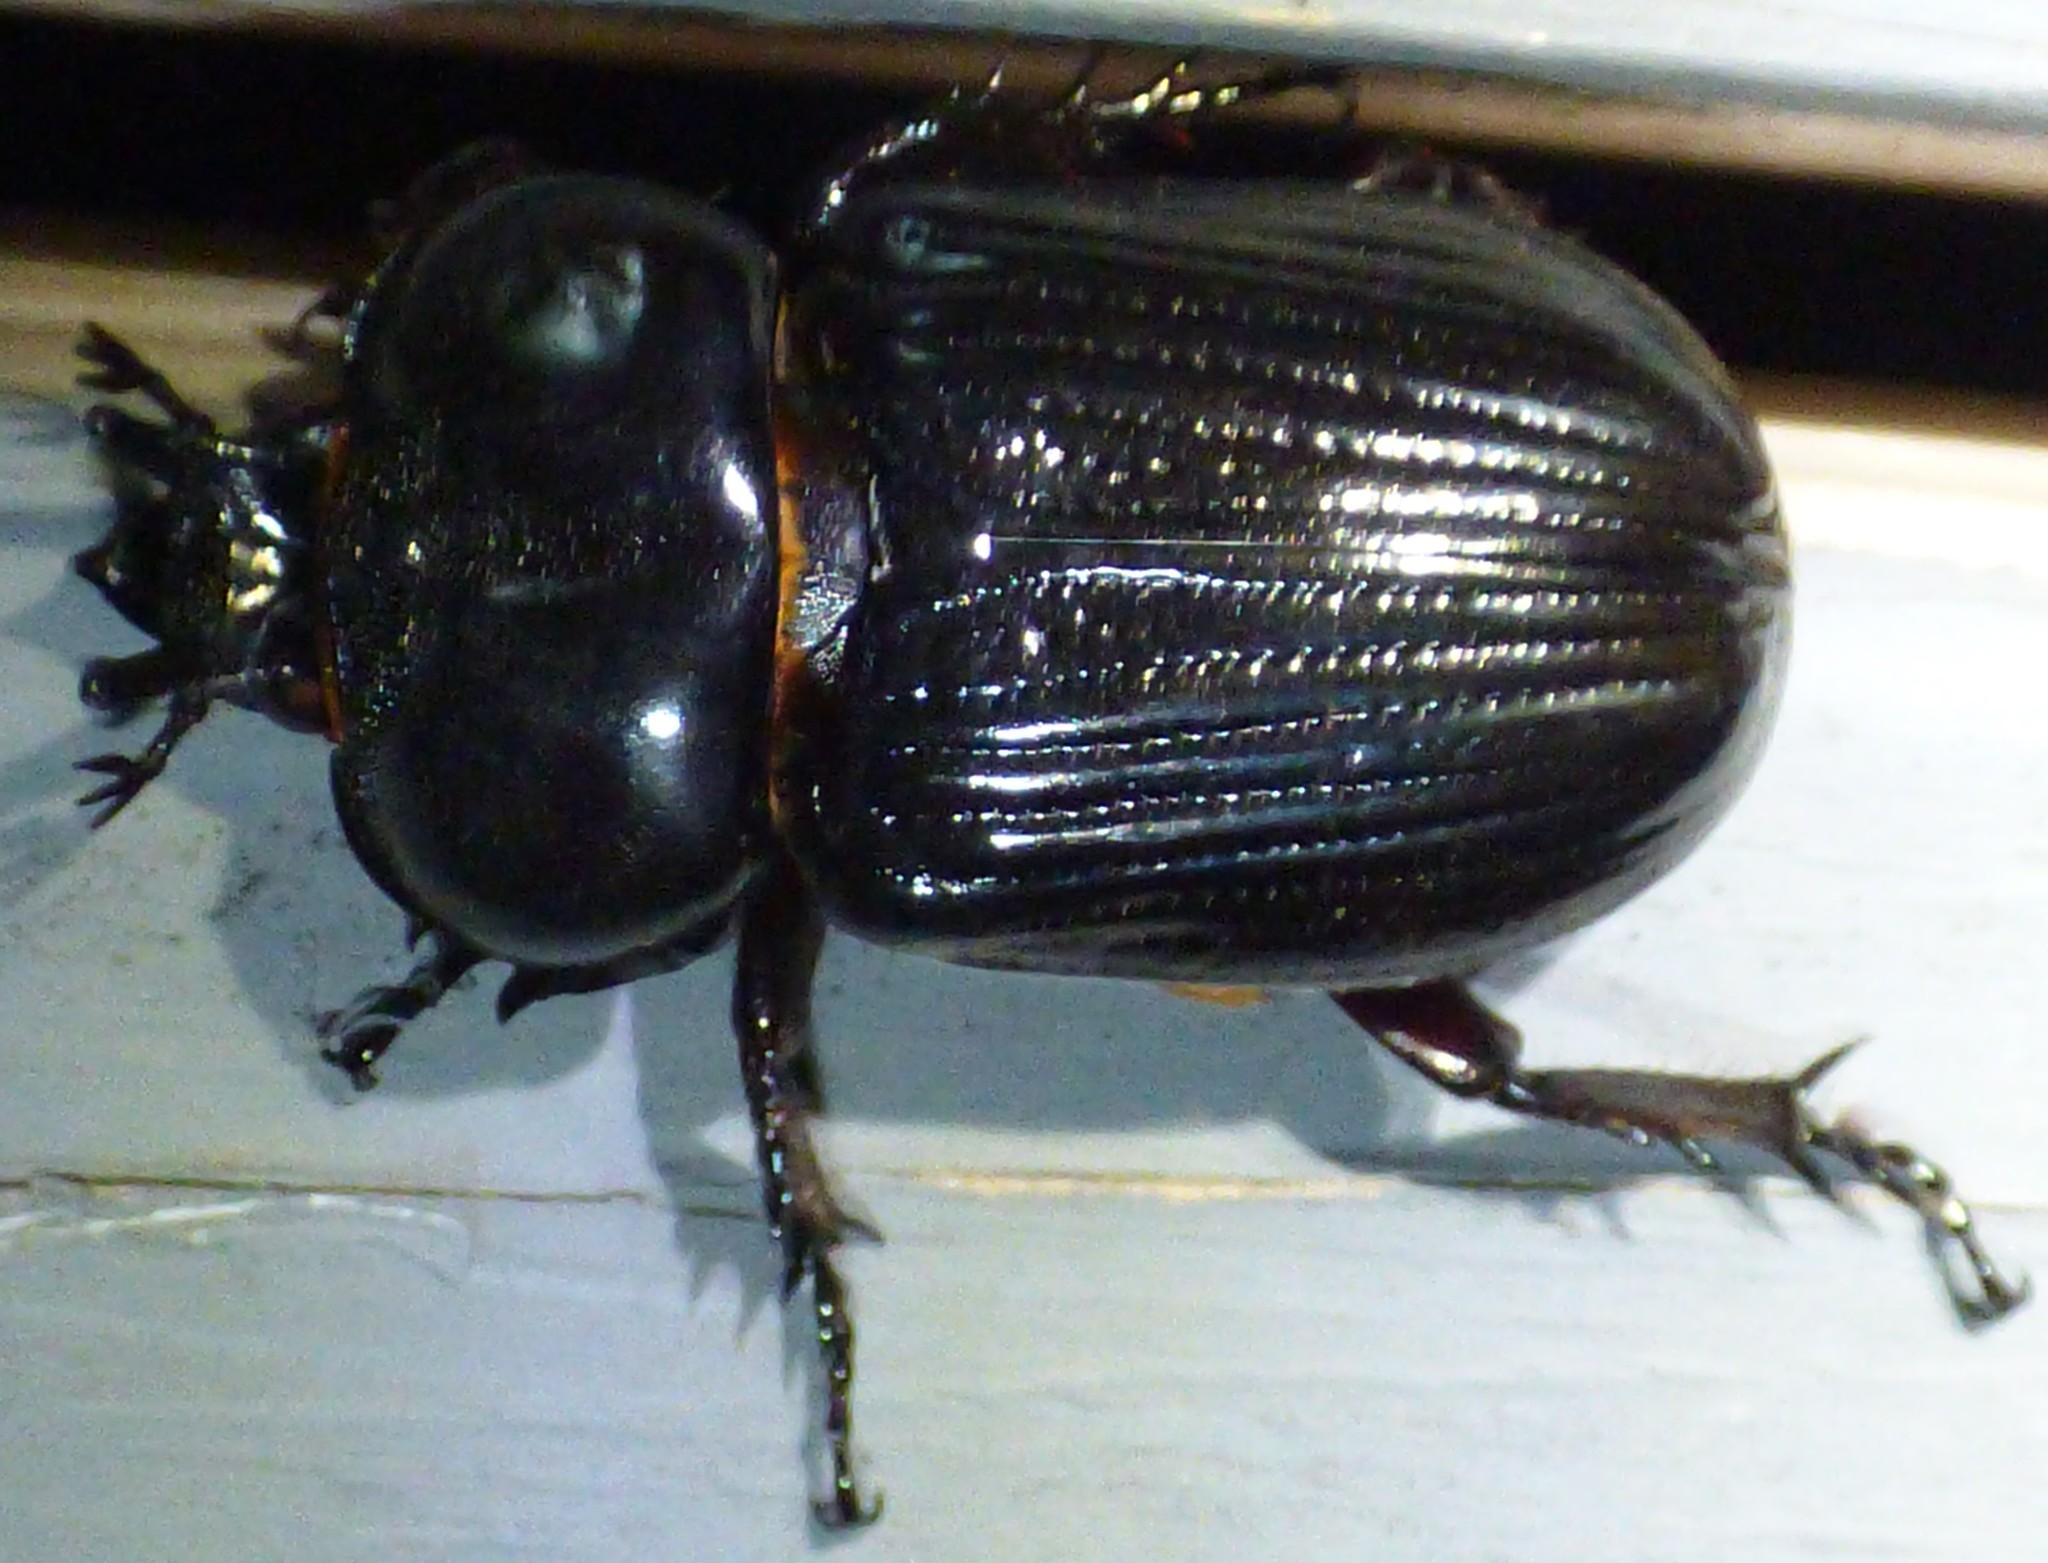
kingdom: Animalia
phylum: Arthropoda
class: Insecta
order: Coleoptera
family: Scarabaeidae
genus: Phileurus
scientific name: Phileurus truncatus
